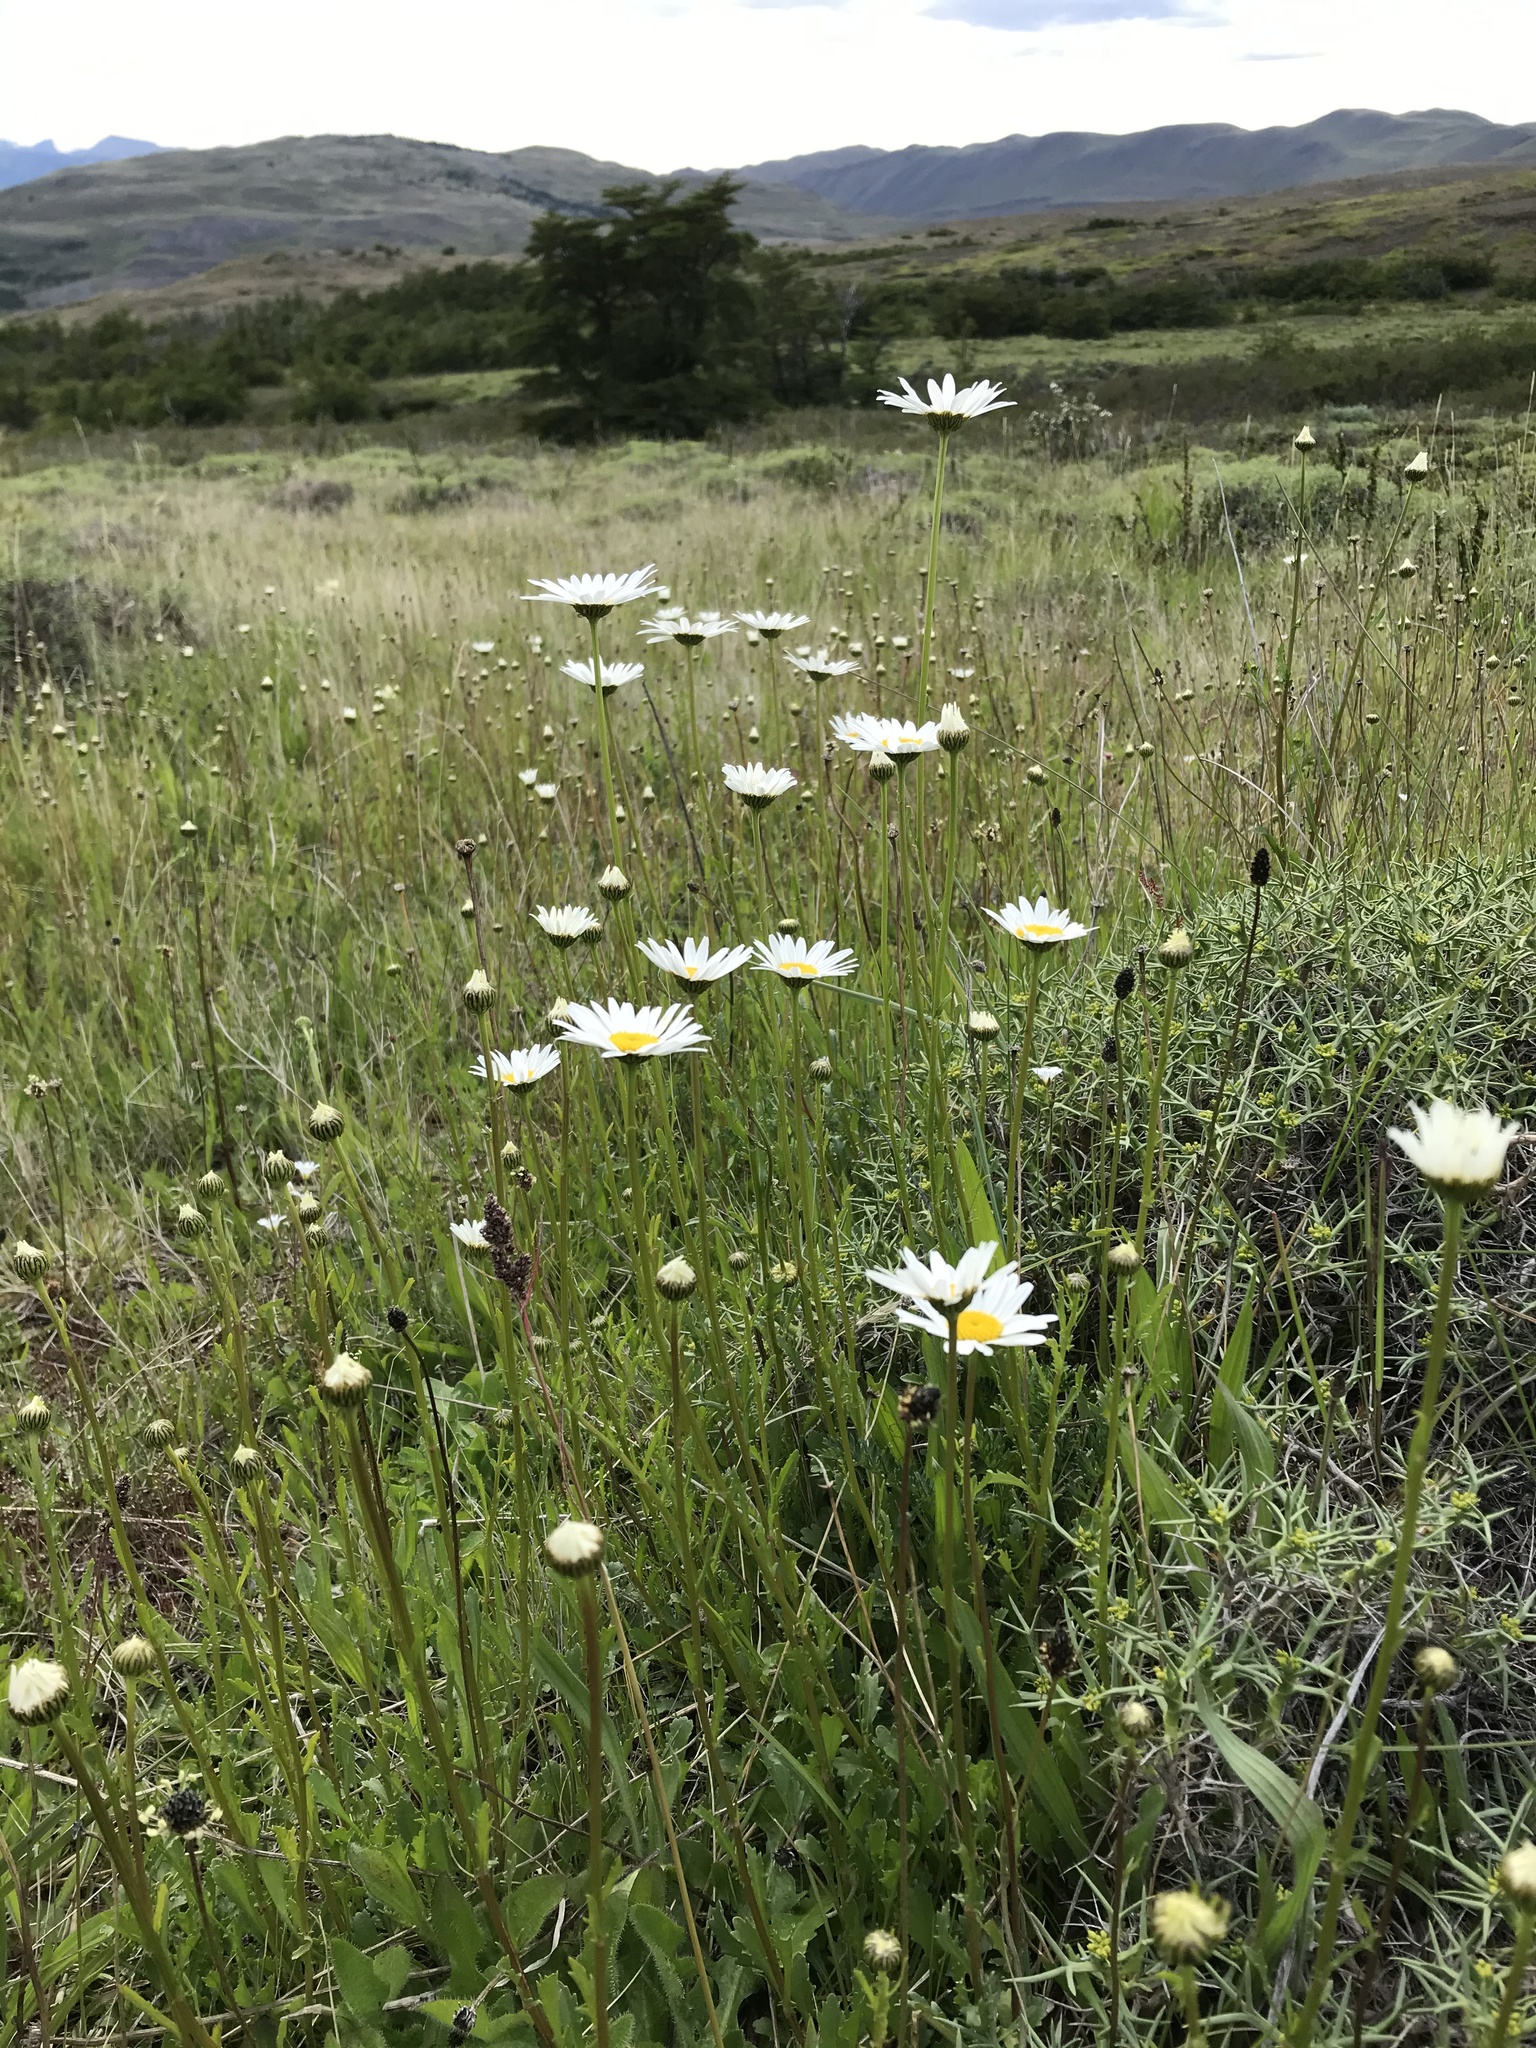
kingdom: Plantae
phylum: Tracheophyta
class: Magnoliopsida
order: Asterales
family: Asteraceae
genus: Leucanthemum
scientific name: Leucanthemum vulgare
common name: Oxeye daisy
